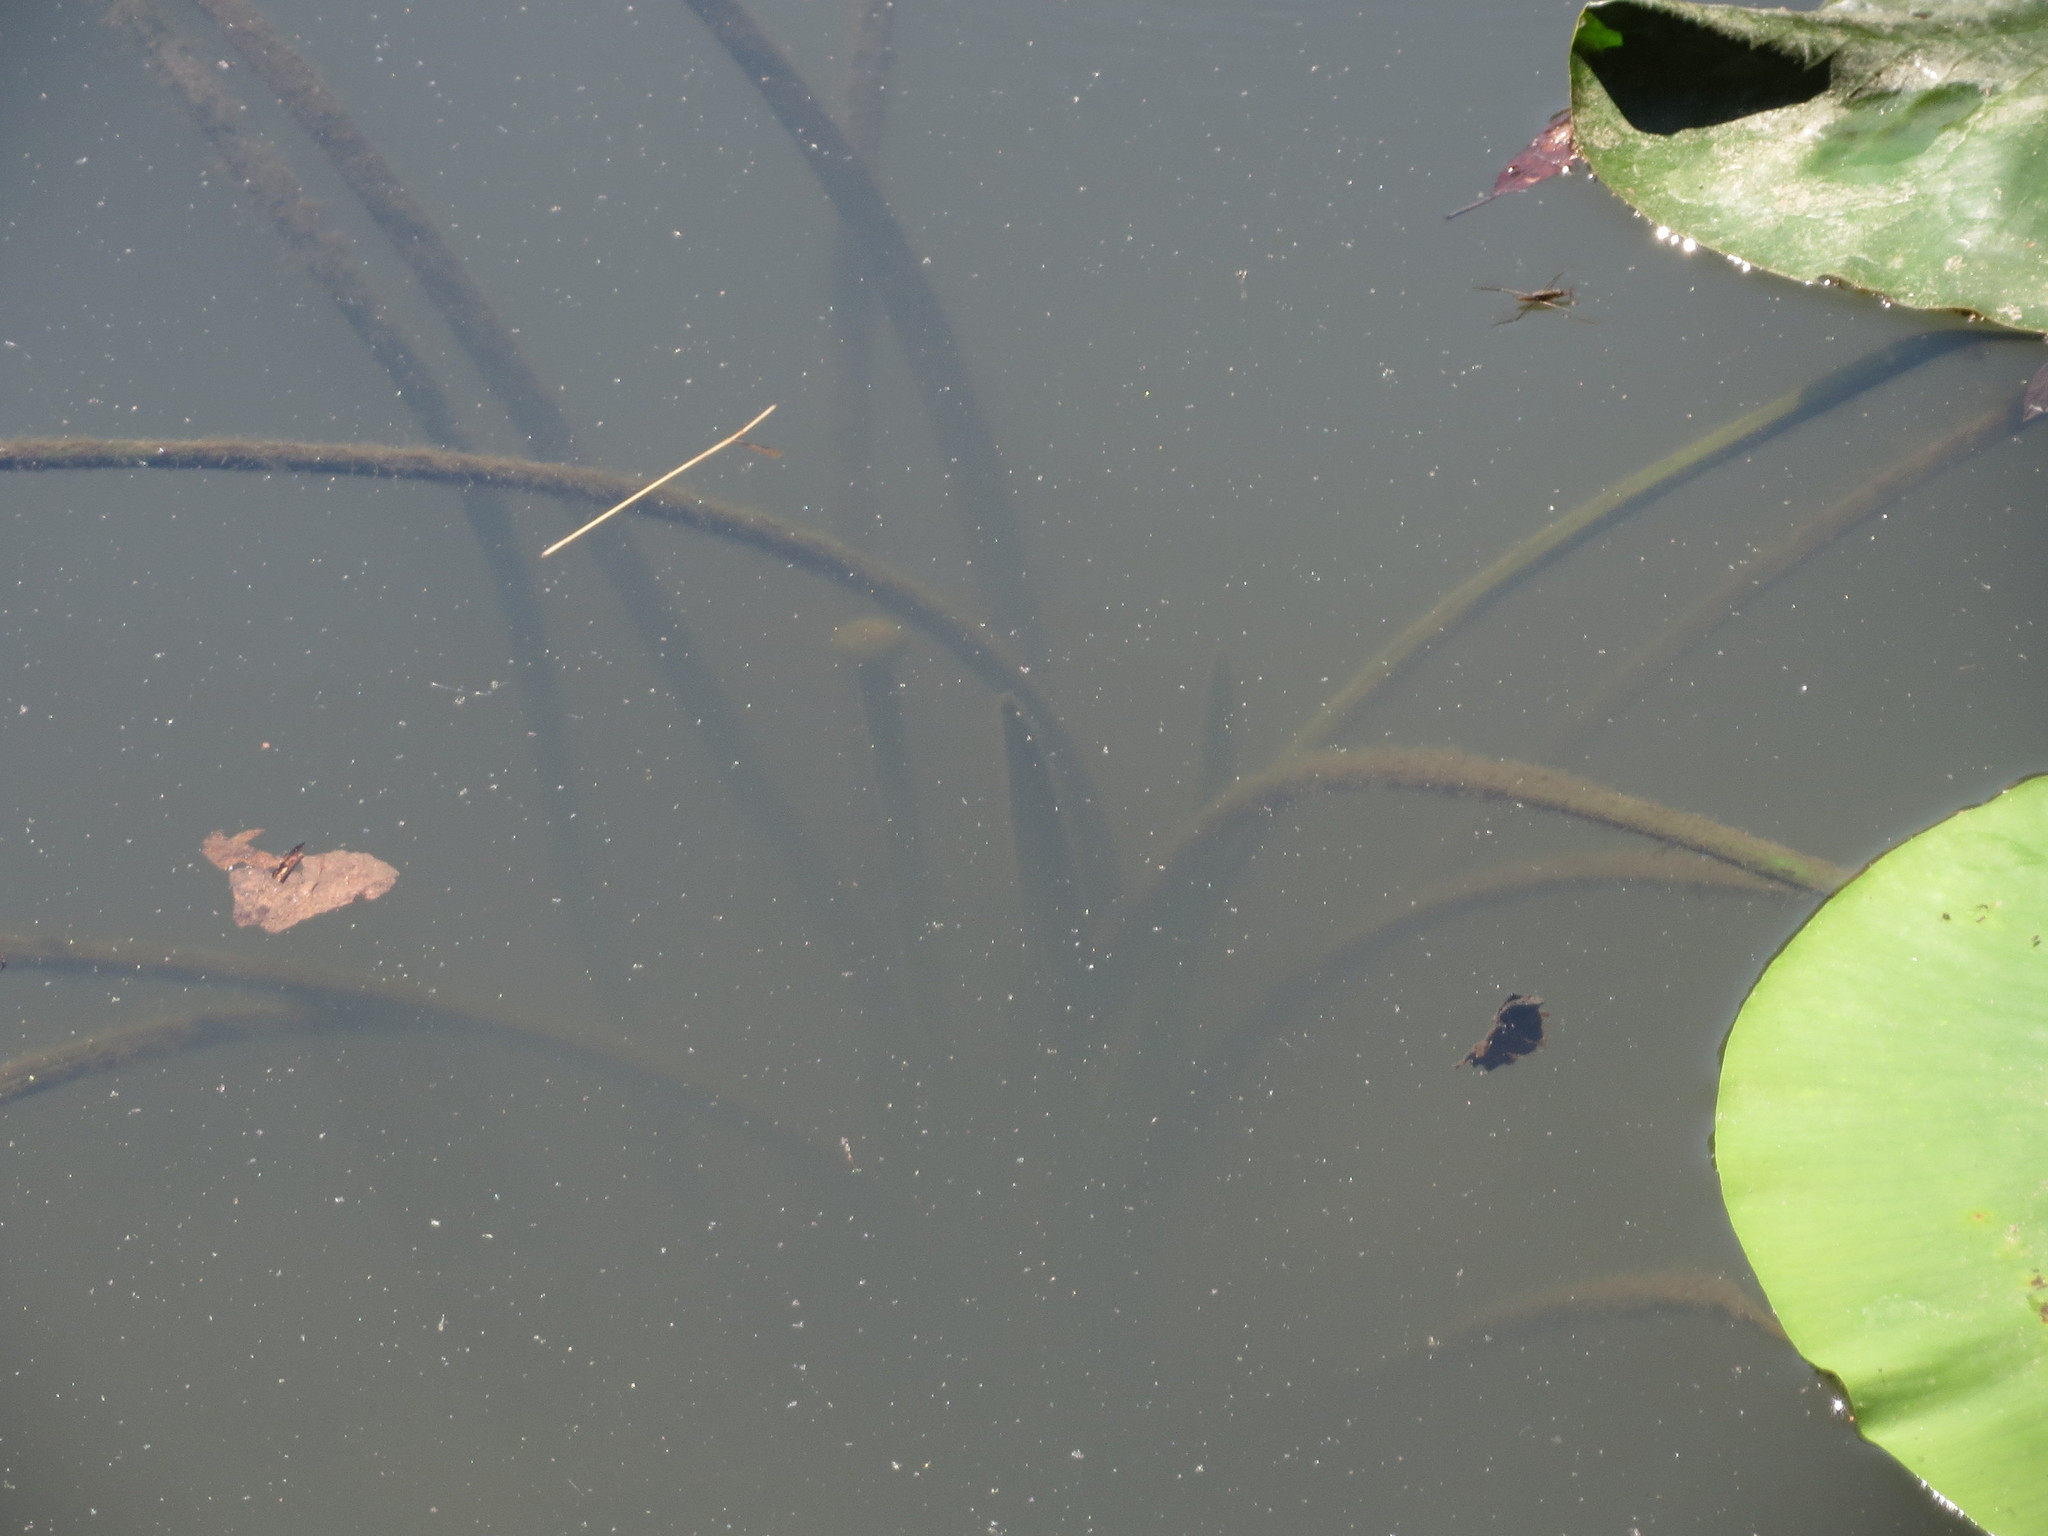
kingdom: Plantae
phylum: Tracheophyta
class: Magnoliopsida
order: Nymphaeales
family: Nymphaeaceae
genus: Nymphaea
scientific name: Nymphaea alba
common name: White water-lily
